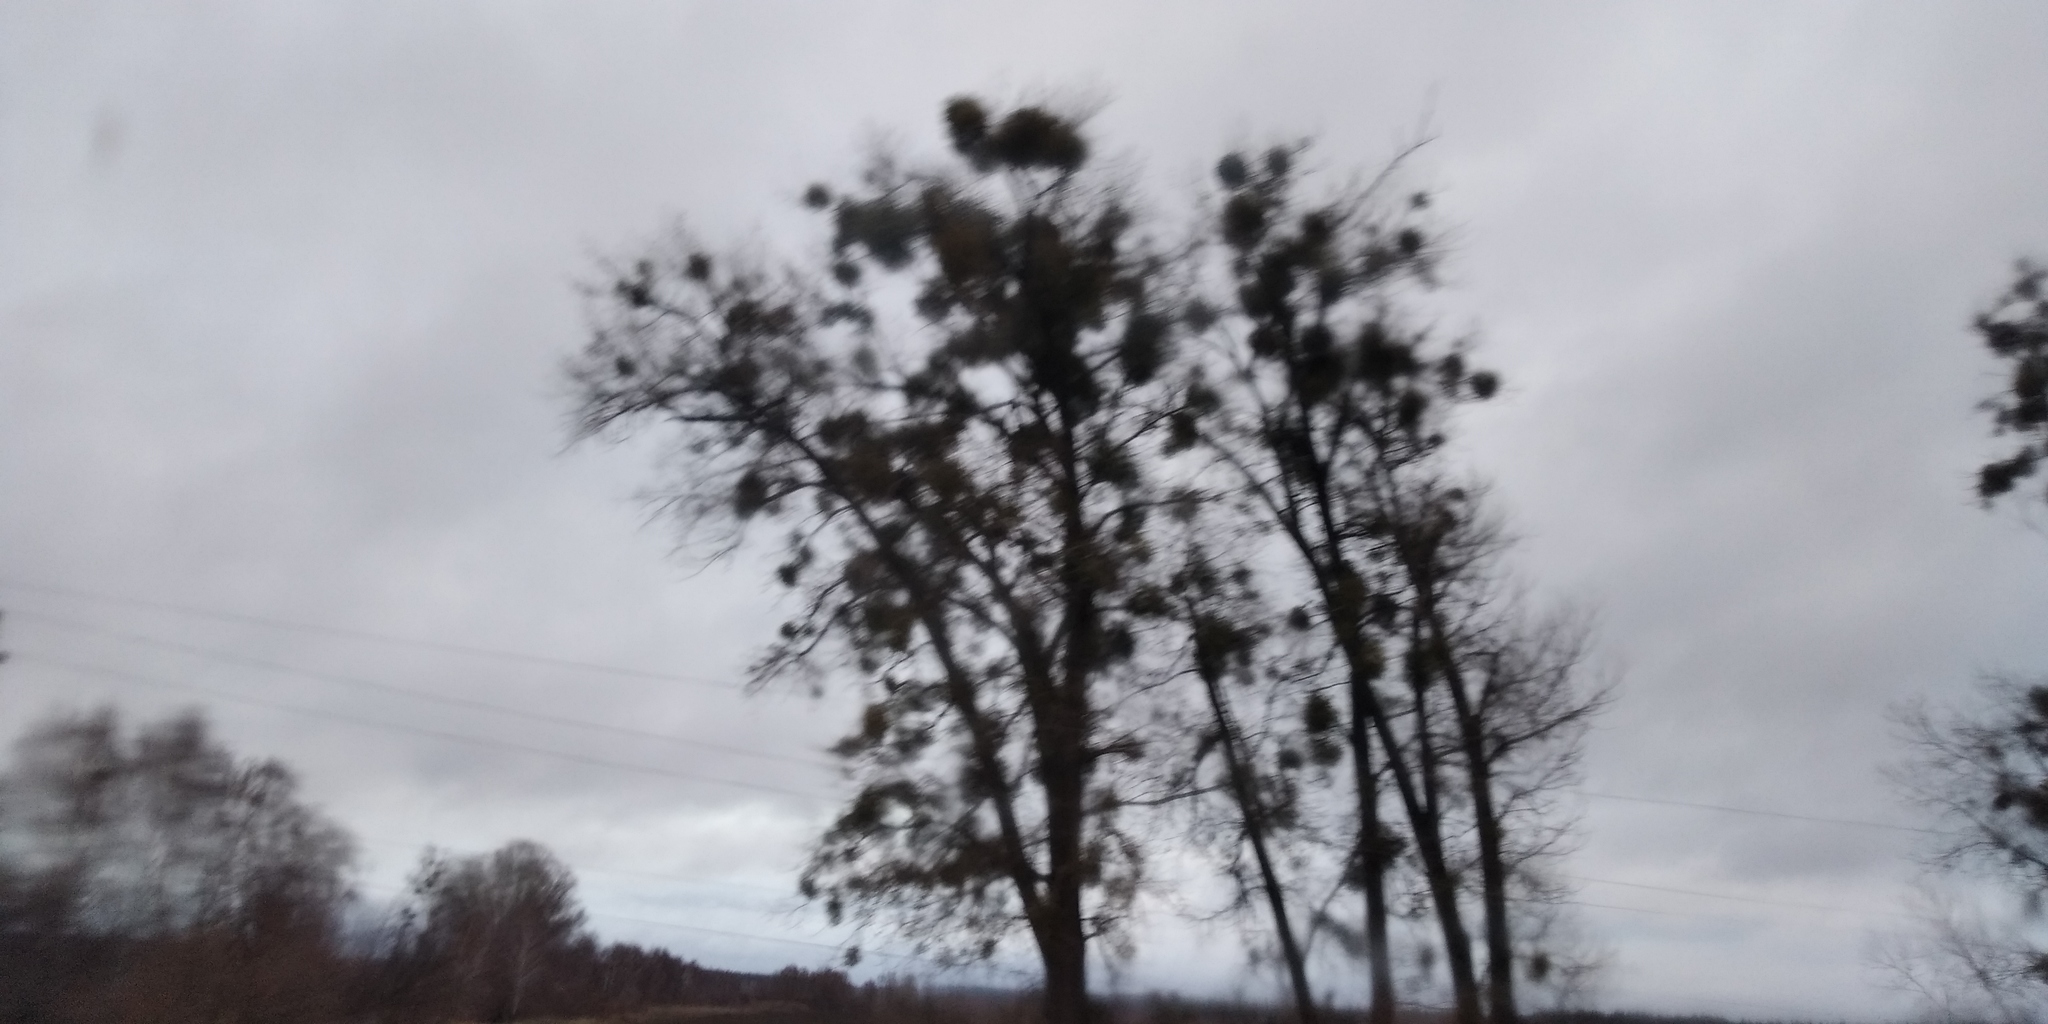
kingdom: Plantae
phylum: Tracheophyta
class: Magnoliopsida
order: Santalales
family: Viscaceae
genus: Viscum
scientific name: Viscum album
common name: Mistletoe
